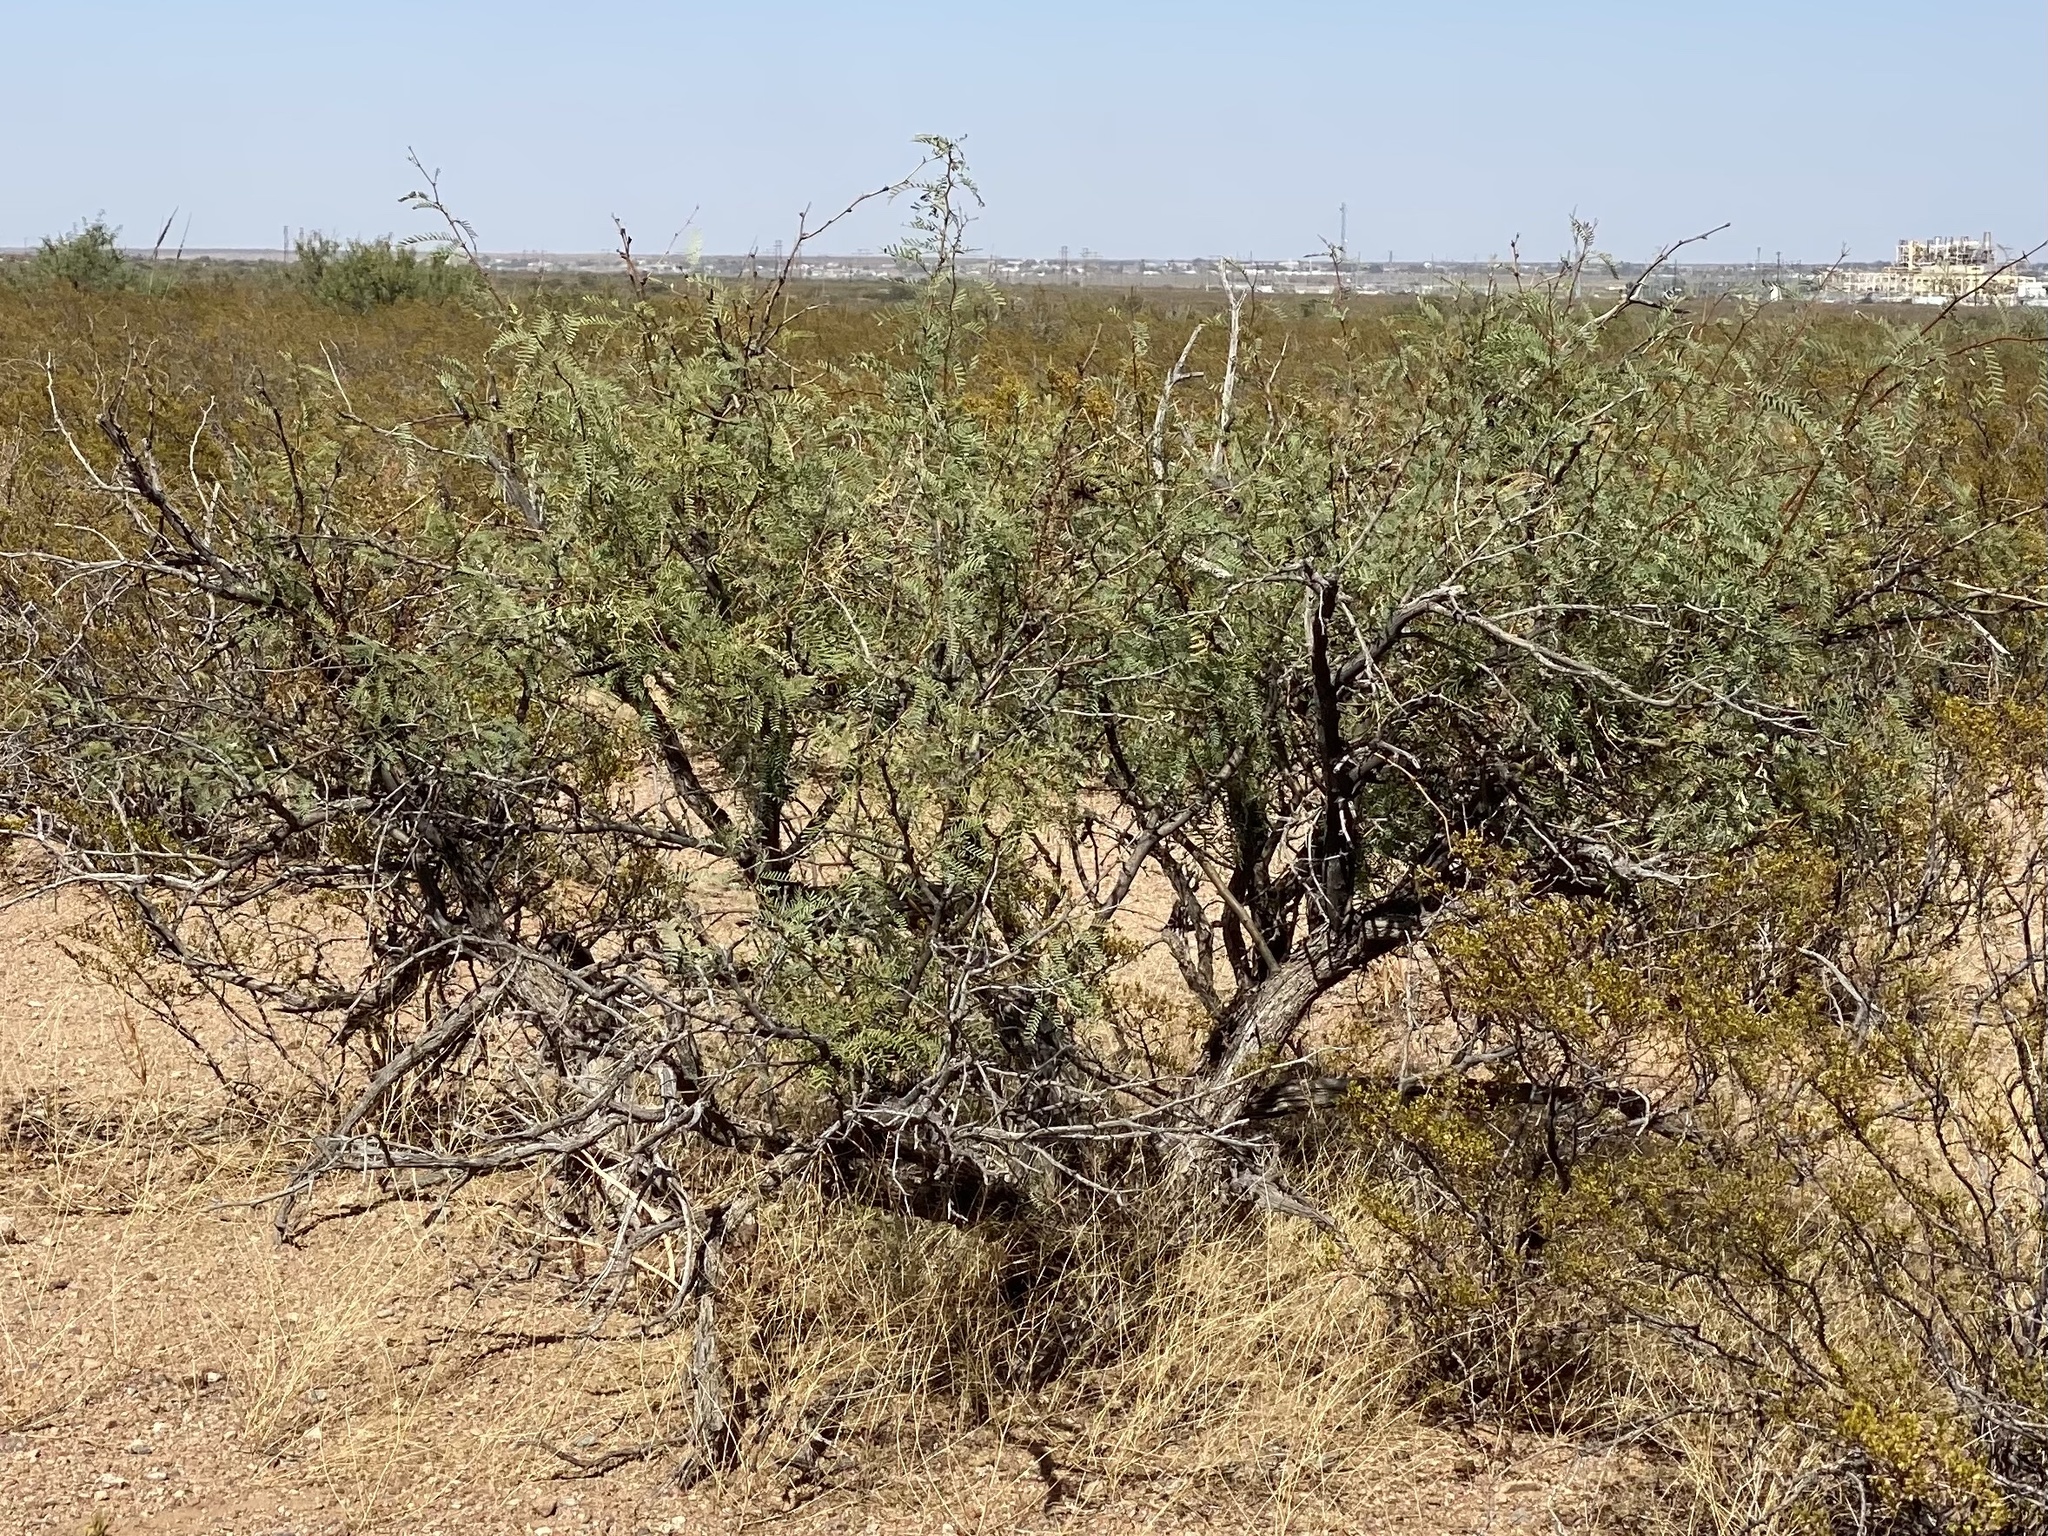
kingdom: Plantae
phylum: Tracheophyta
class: Magnoliopsida
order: Fabales
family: Fabaceae
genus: Prosopis
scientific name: Prosopis glandulosa
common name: Honey mesquite
